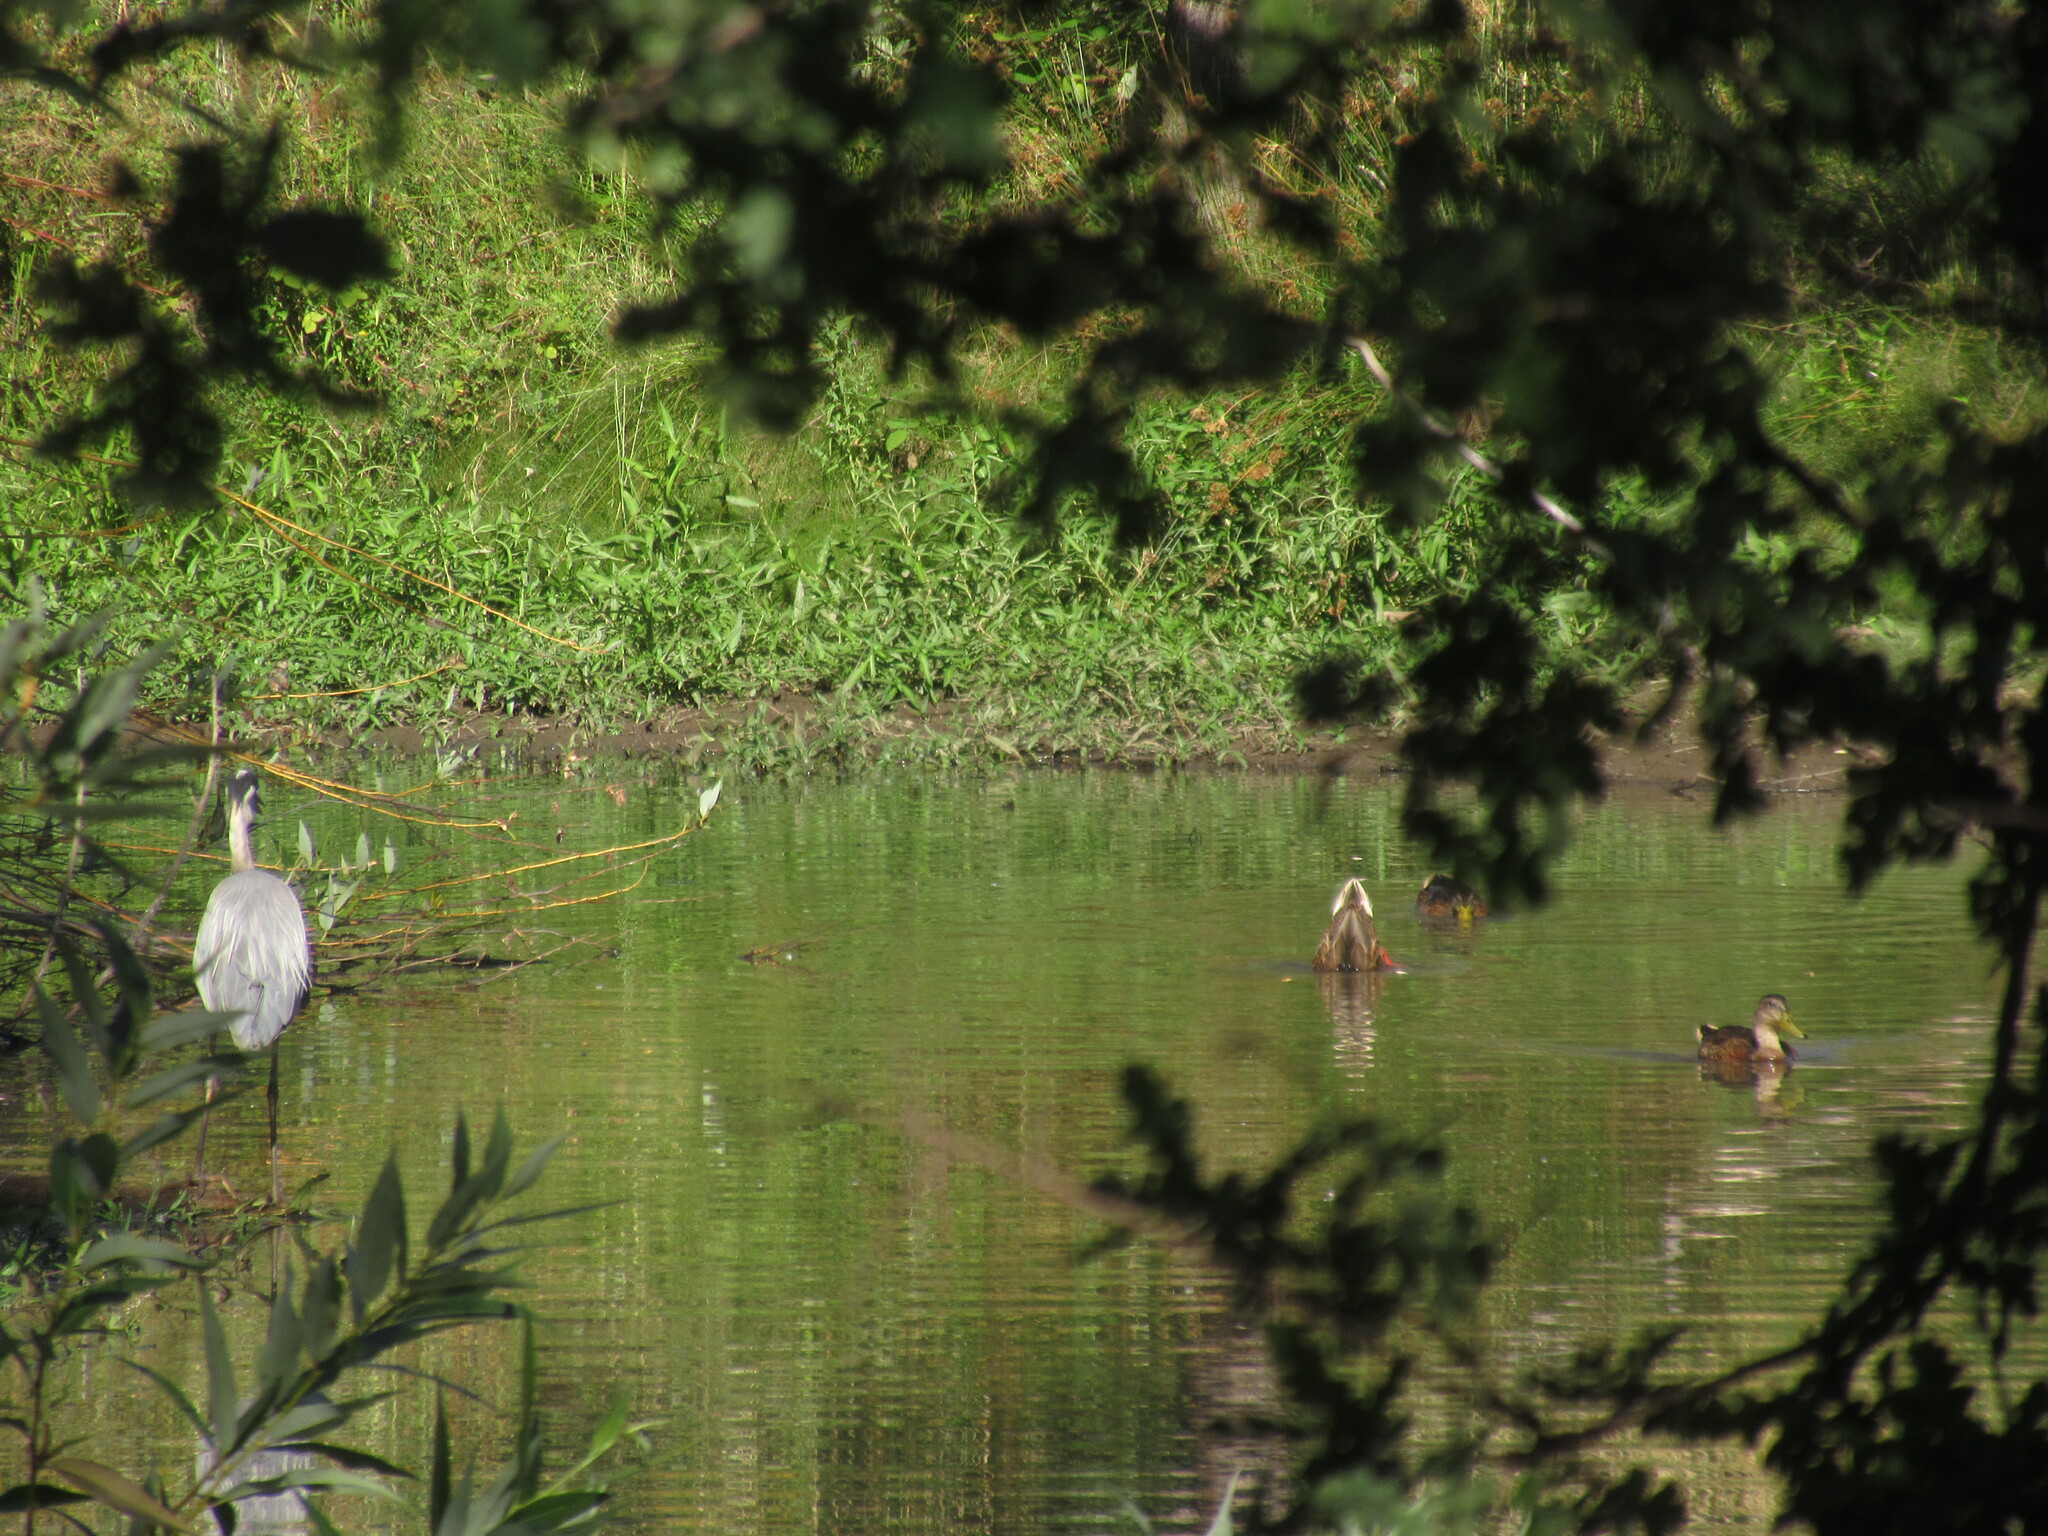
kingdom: Animalia
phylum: Chordata
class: Aves
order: Pelecaniformes
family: Ardeidae
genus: Ardea
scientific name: Ardea herodias
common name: Great blue heron
